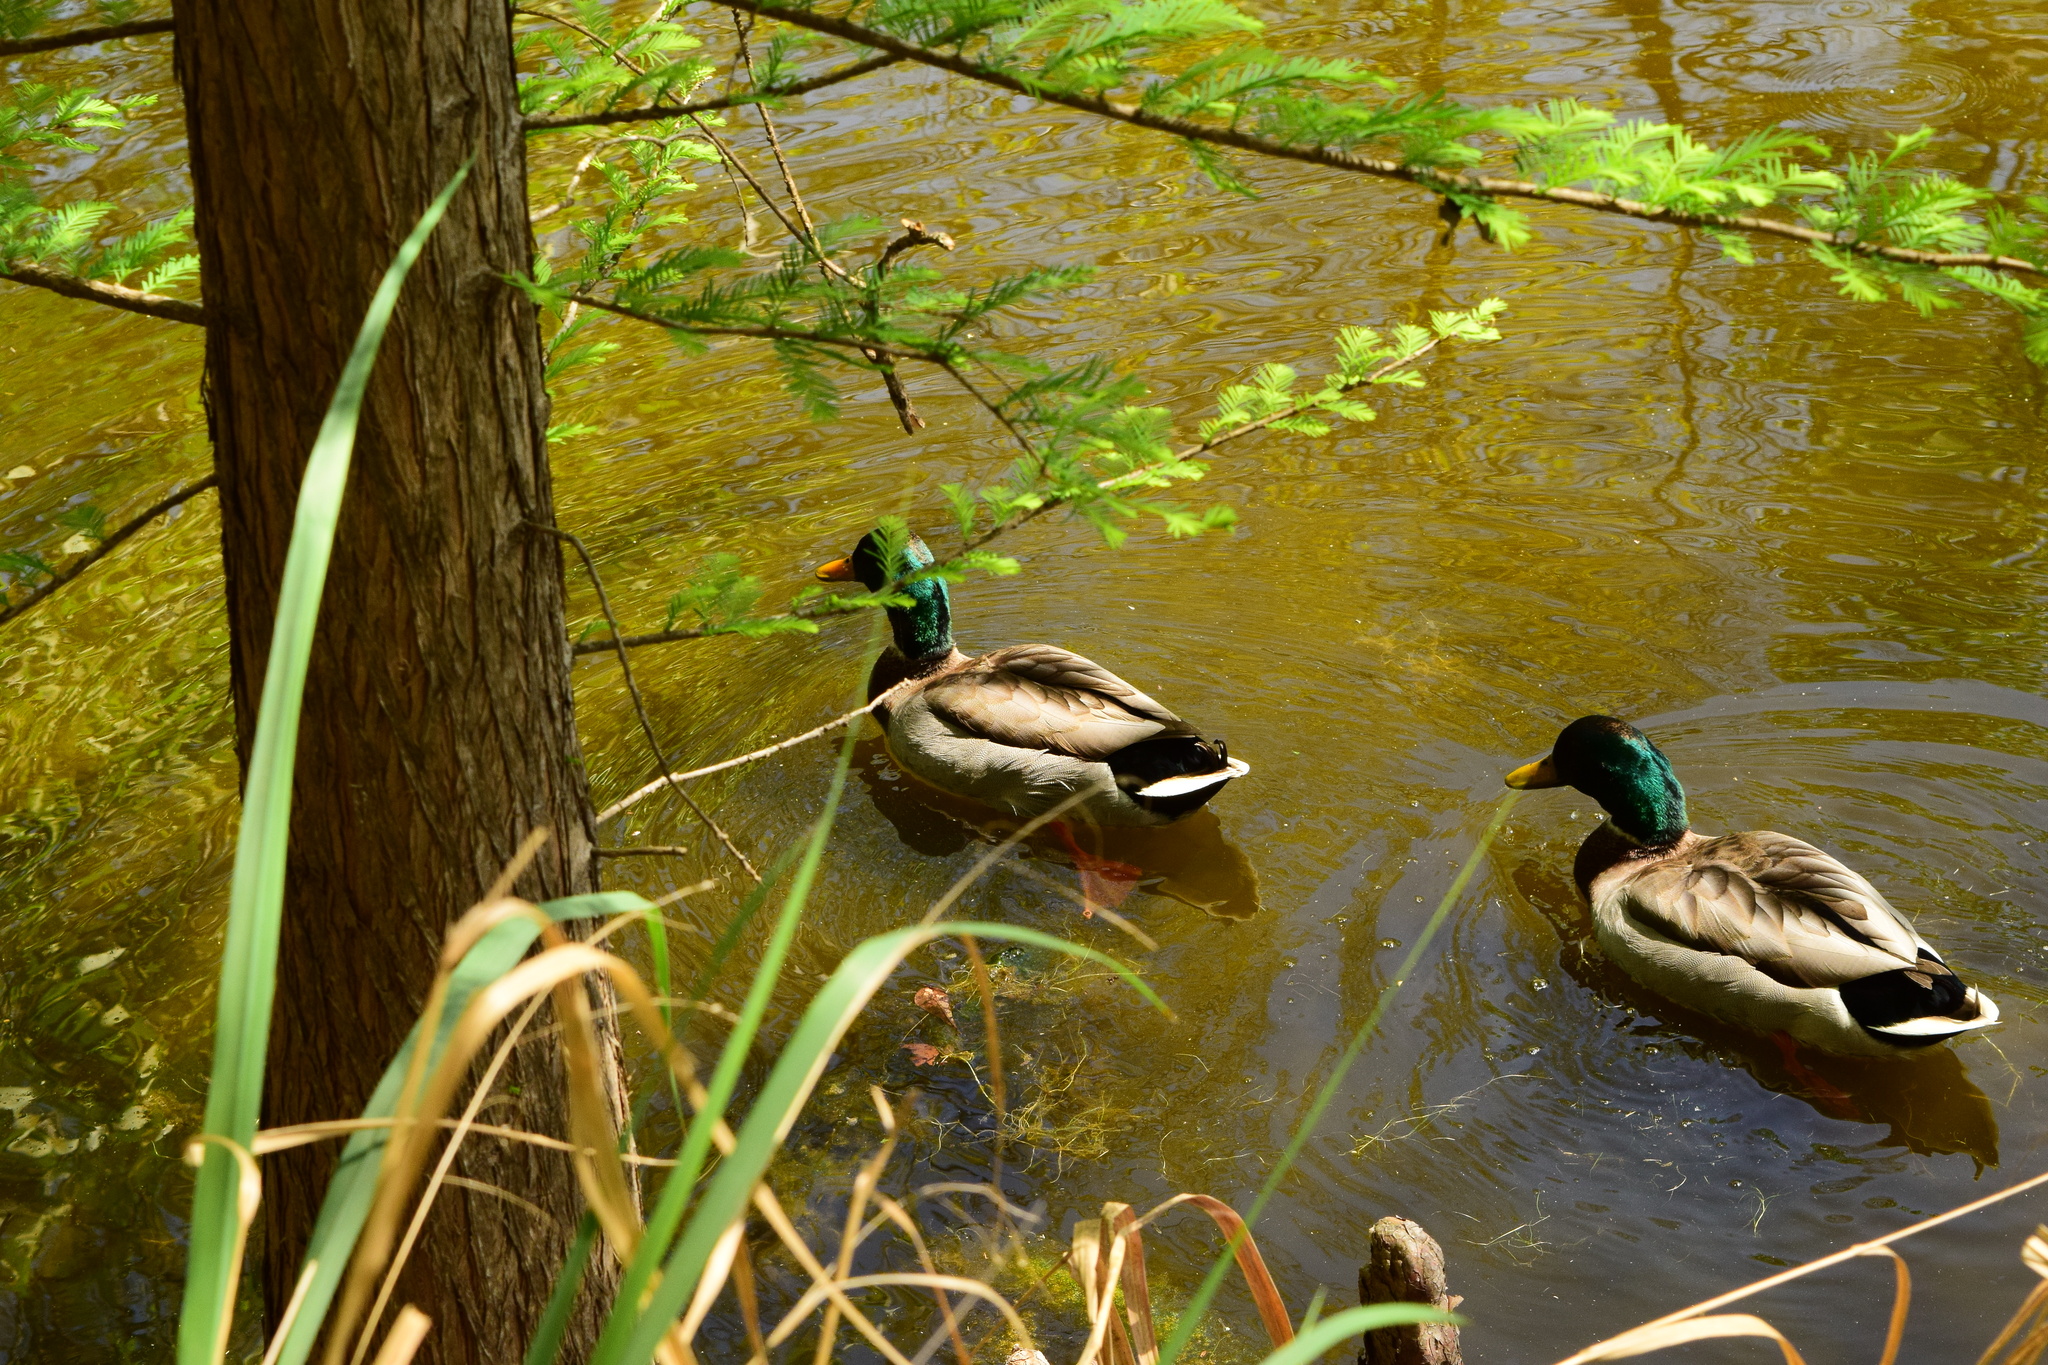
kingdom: Animalia
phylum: Chordata
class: Aves
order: Anseriformes
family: Anatidae
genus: Anas
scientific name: Anas platyrhynchos
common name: Mallard
